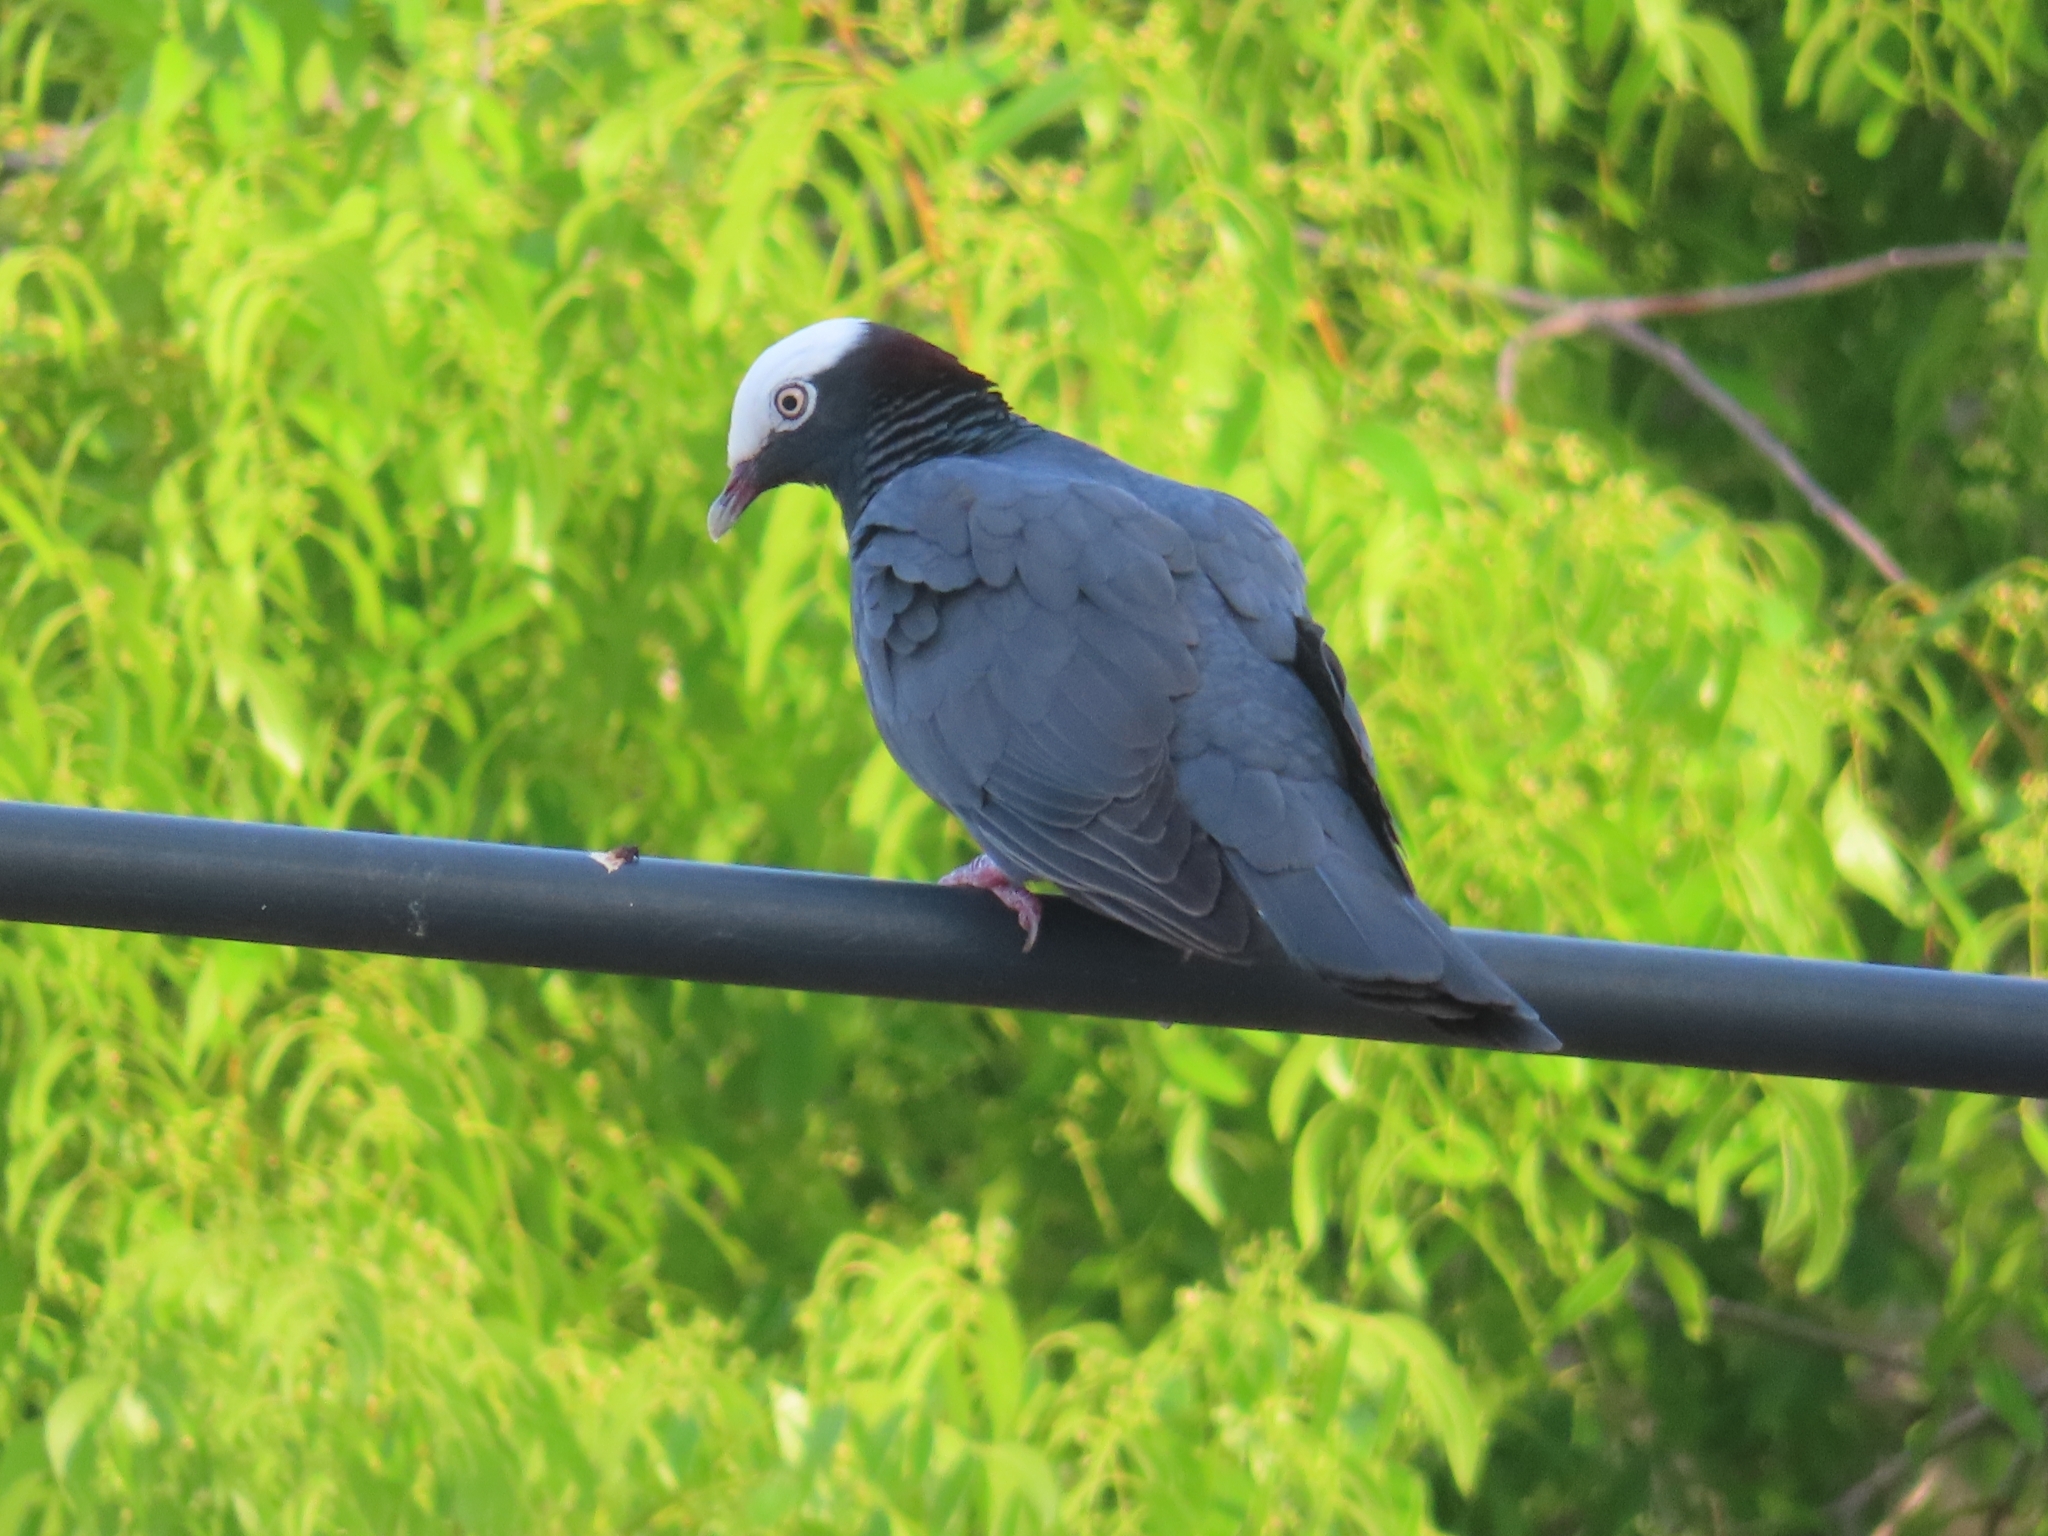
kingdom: Animalia
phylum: Chordata
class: Aves
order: Columbiformes
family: Columbidae
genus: Patagioenas
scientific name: Patagioenas leucocephala
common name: White-crowned pigeon
